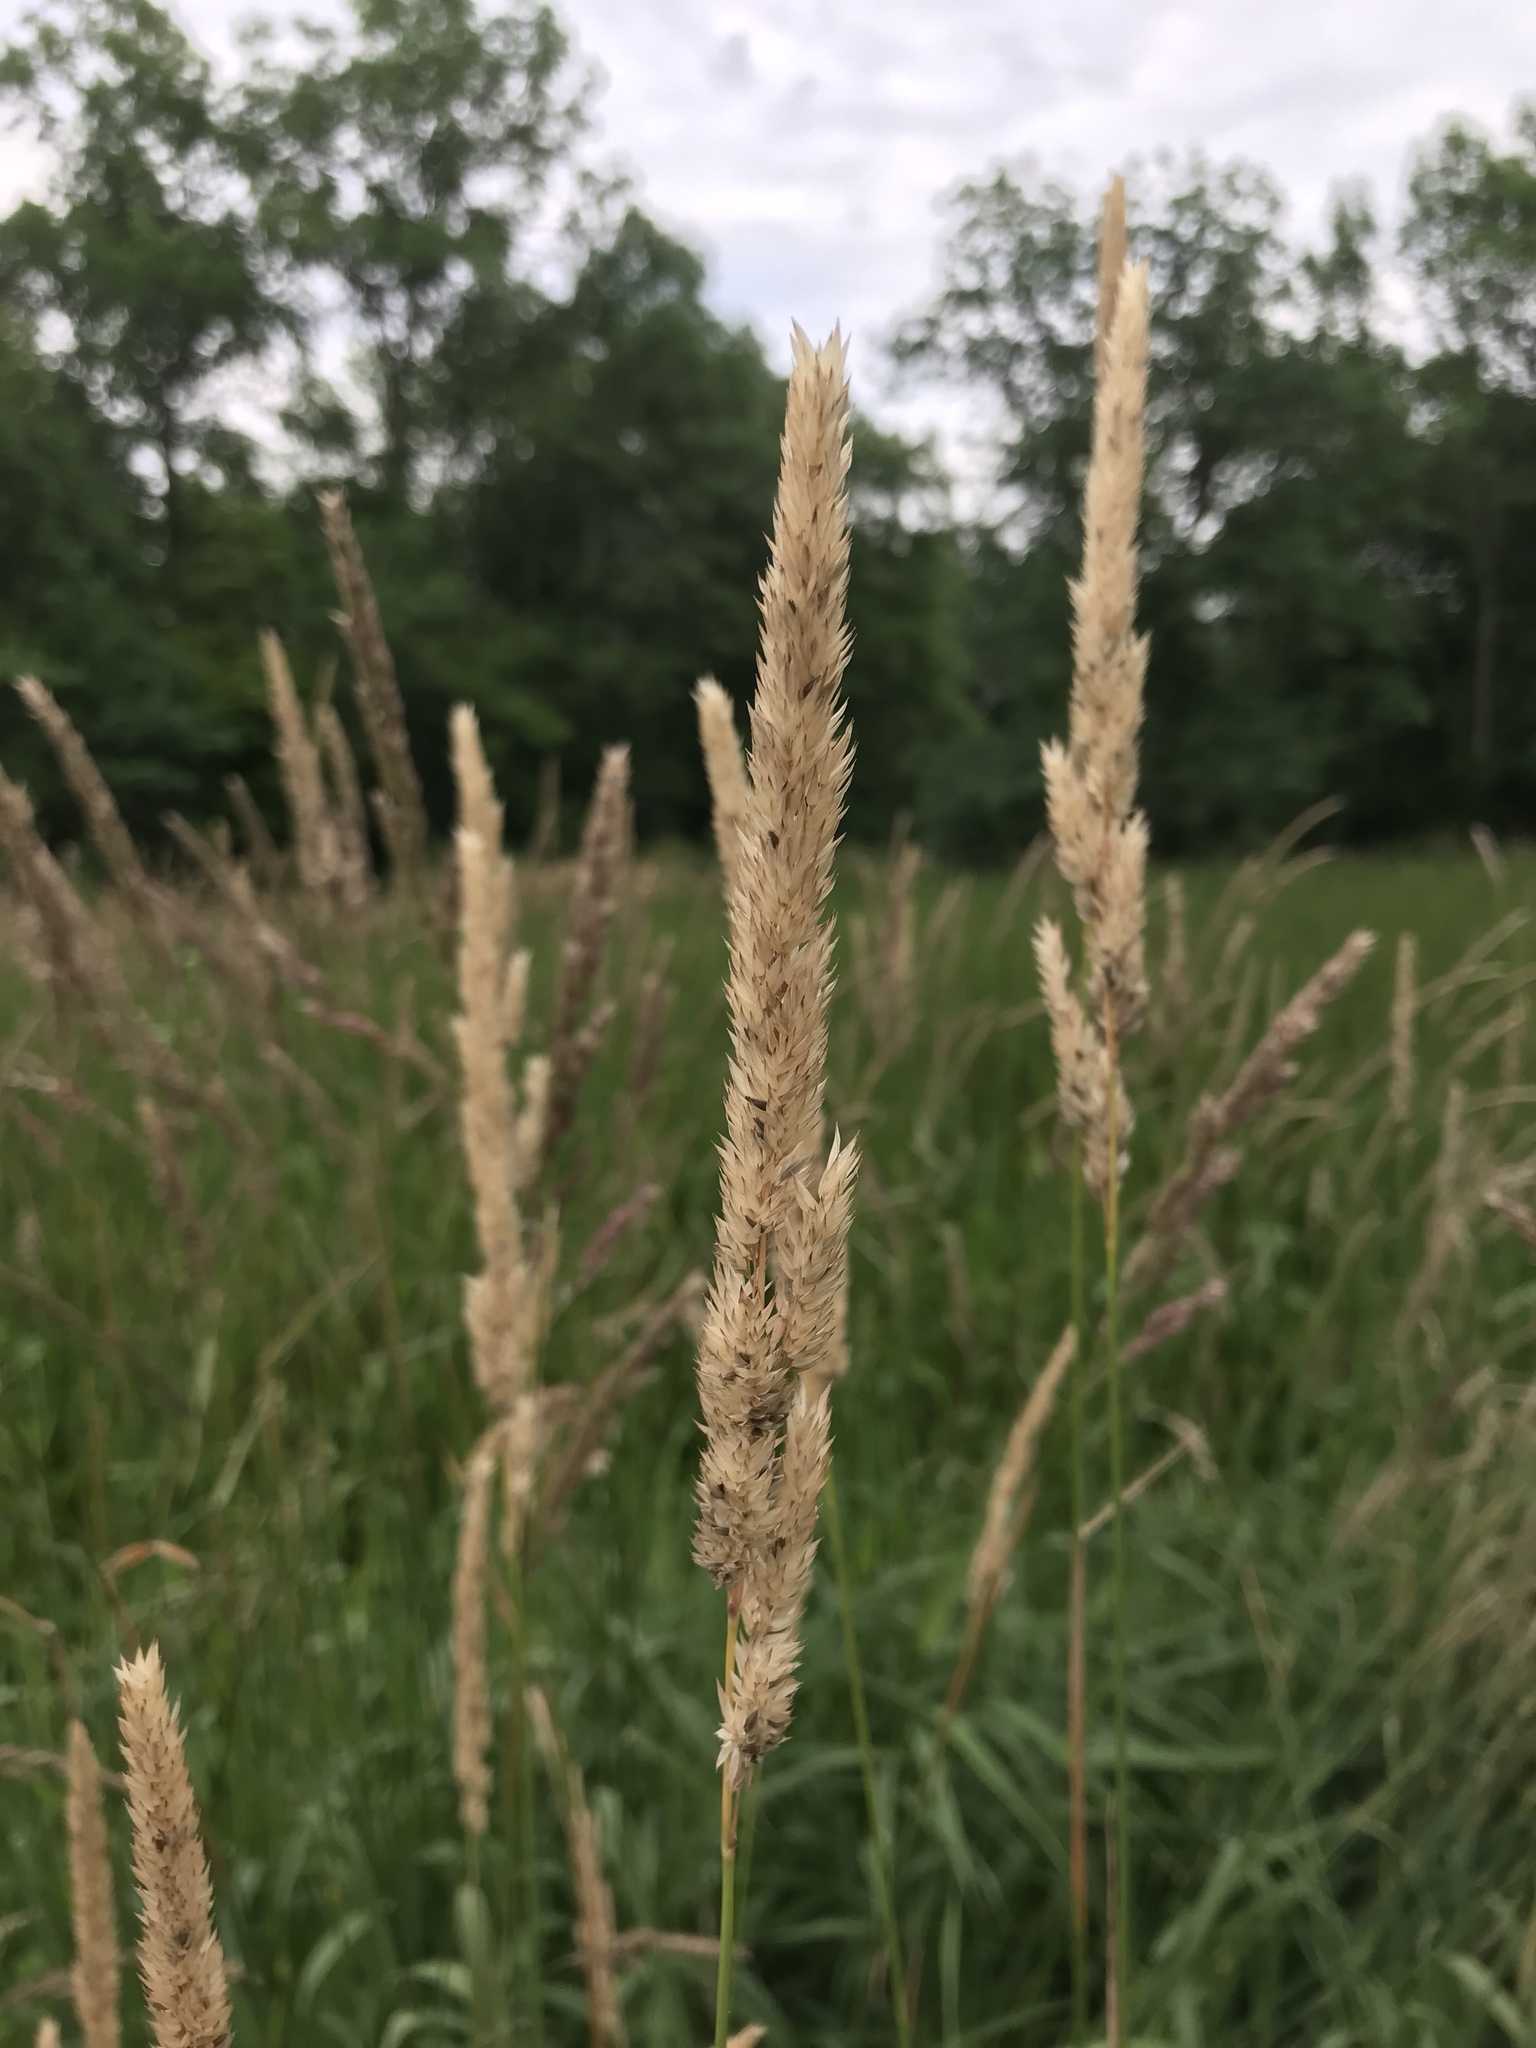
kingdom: Plantae
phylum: Tracheophyta
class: Liliopsida
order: Poales
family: Poaceae
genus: Phalaris
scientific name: Phalaris arundinacea
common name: Reed canary-grass
